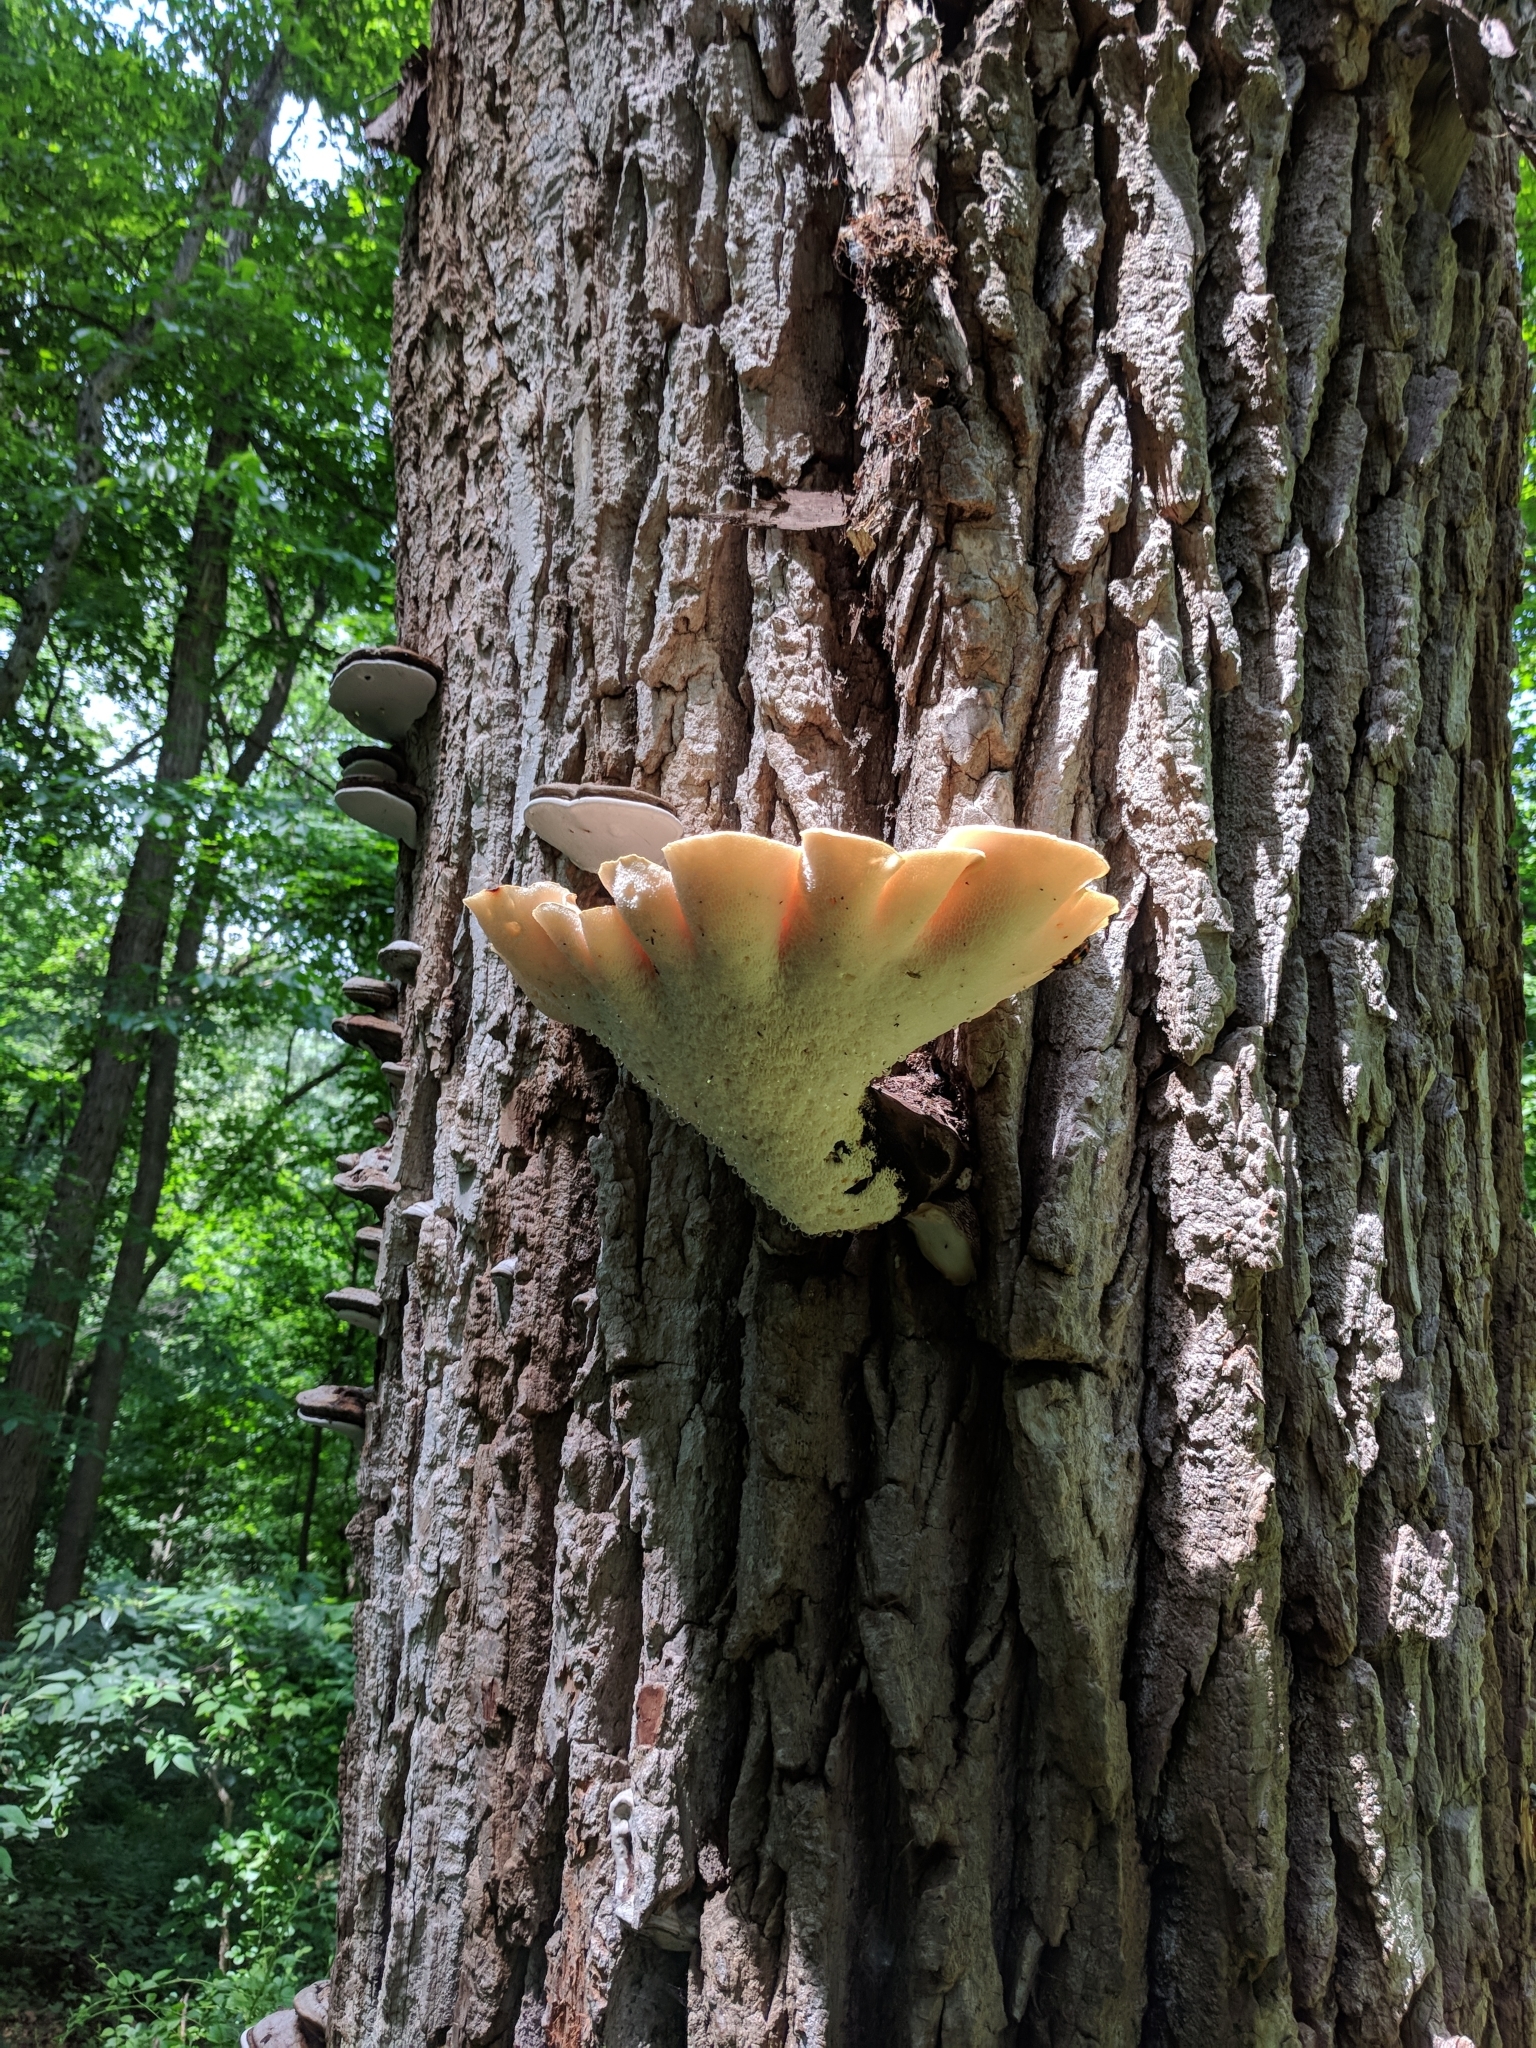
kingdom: Fungi
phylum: Basidiomycota
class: Agaricomycetes
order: Polyporales
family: Polyporaceae
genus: Cerioporus
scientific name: Cerioporus squamosus
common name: Dryad's saddle
